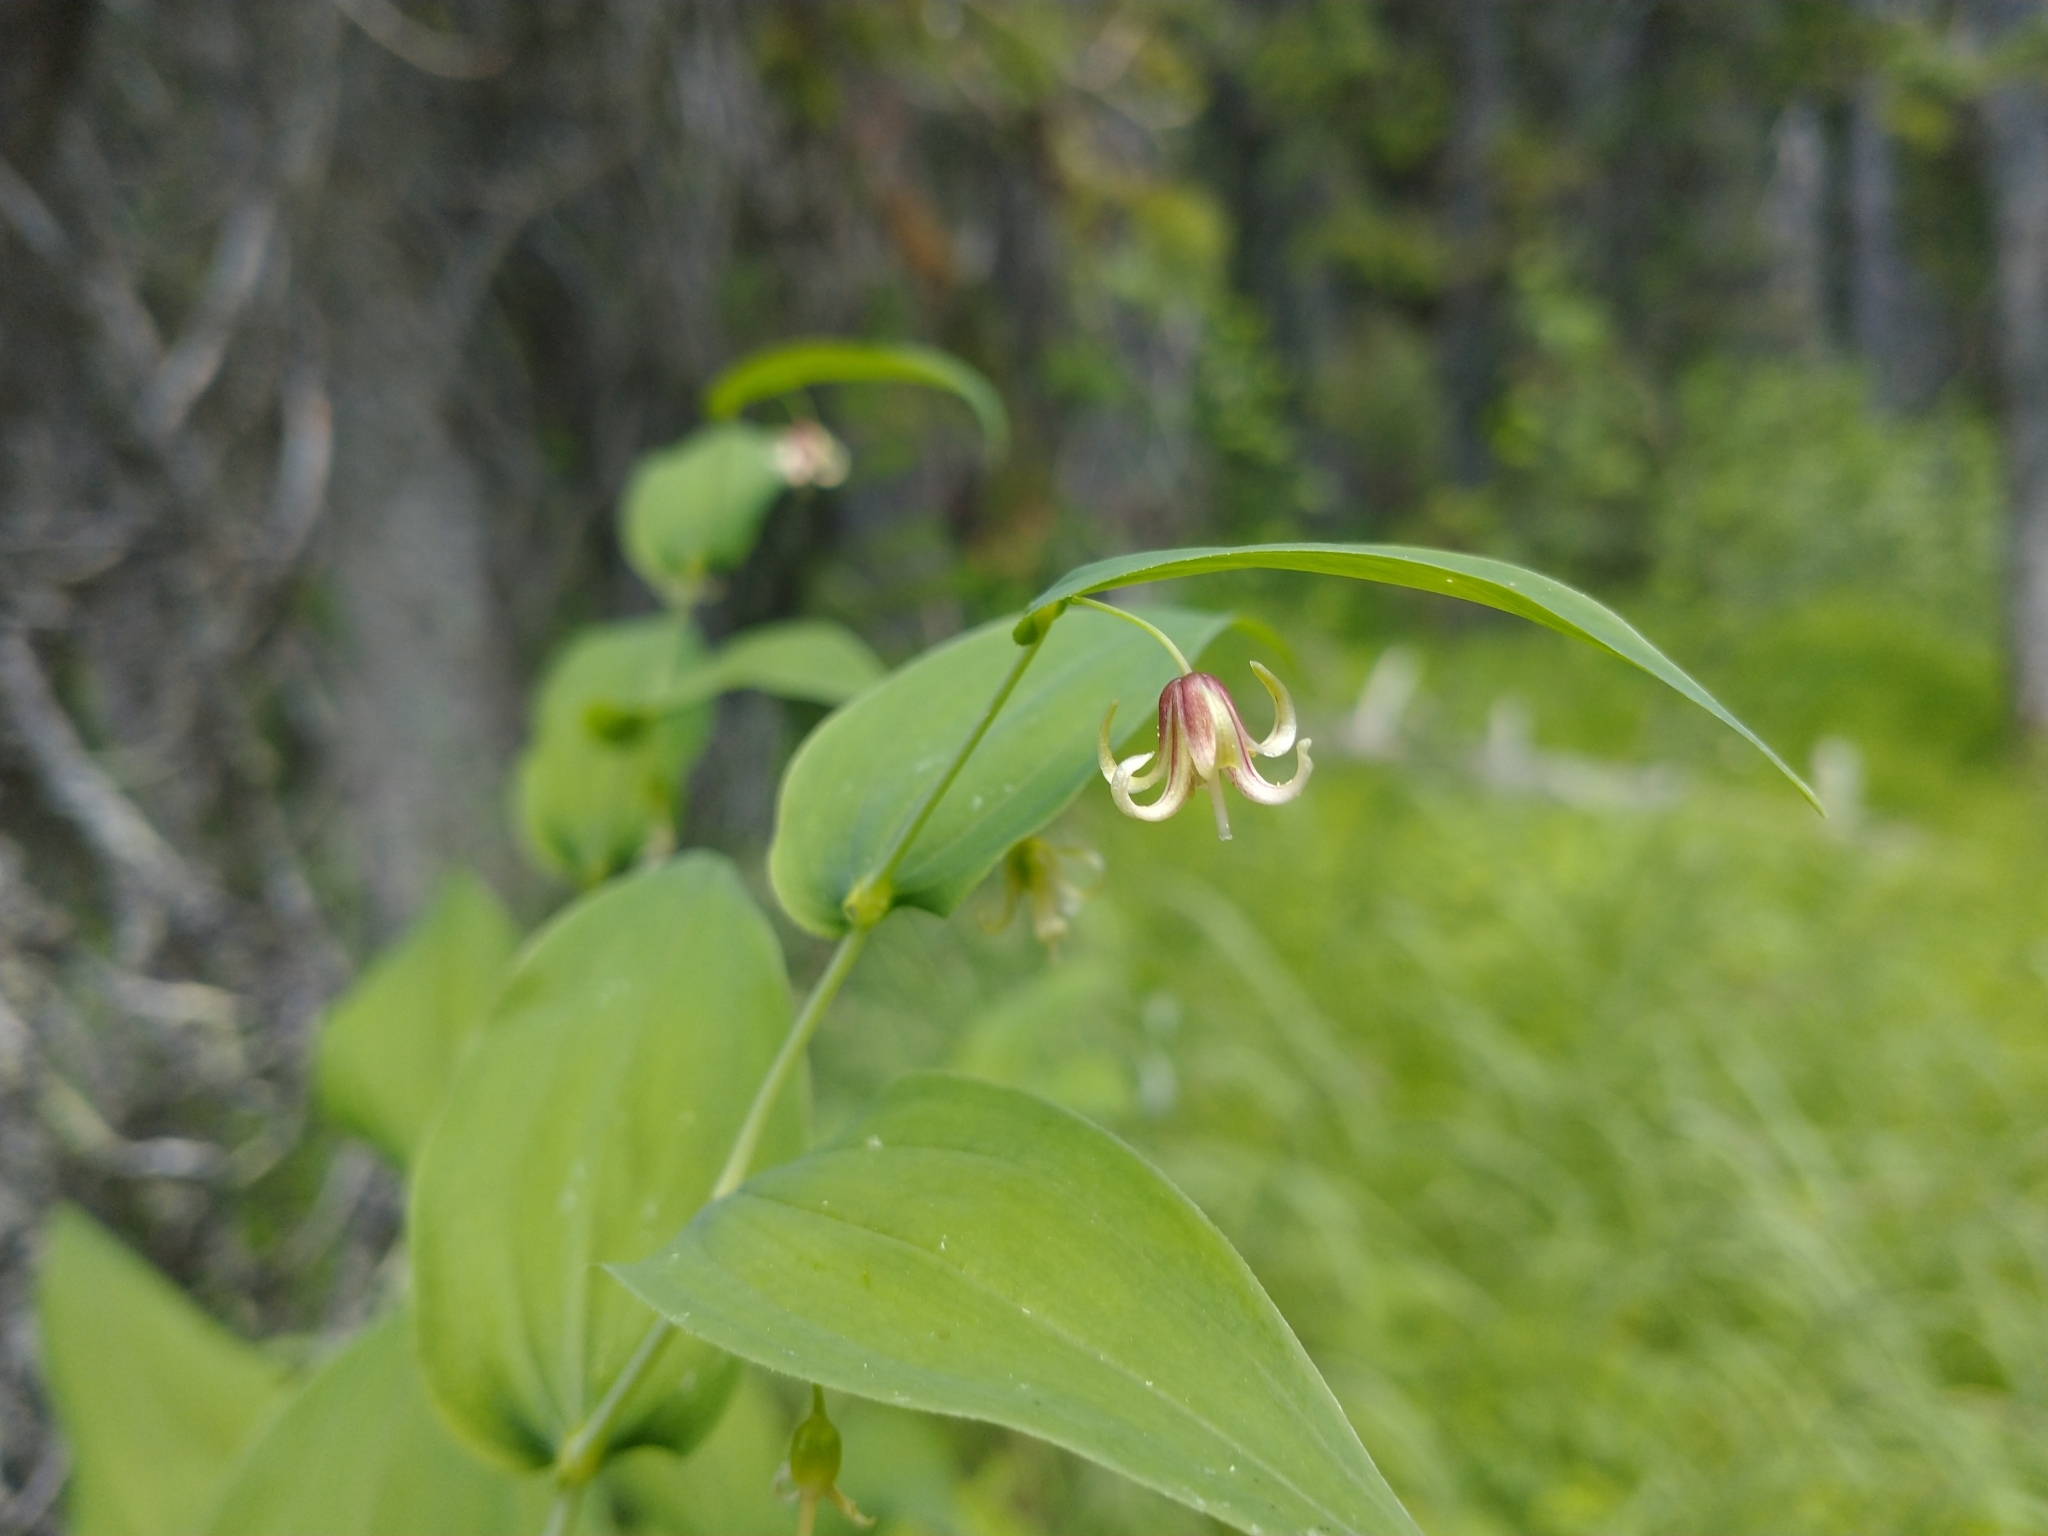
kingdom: Plantae
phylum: Tracheophyta
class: Liliopsida
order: Liliales
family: Liliaceae
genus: Streptopus
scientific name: Streptopus amplexifolius
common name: Clasp twisted stalk
